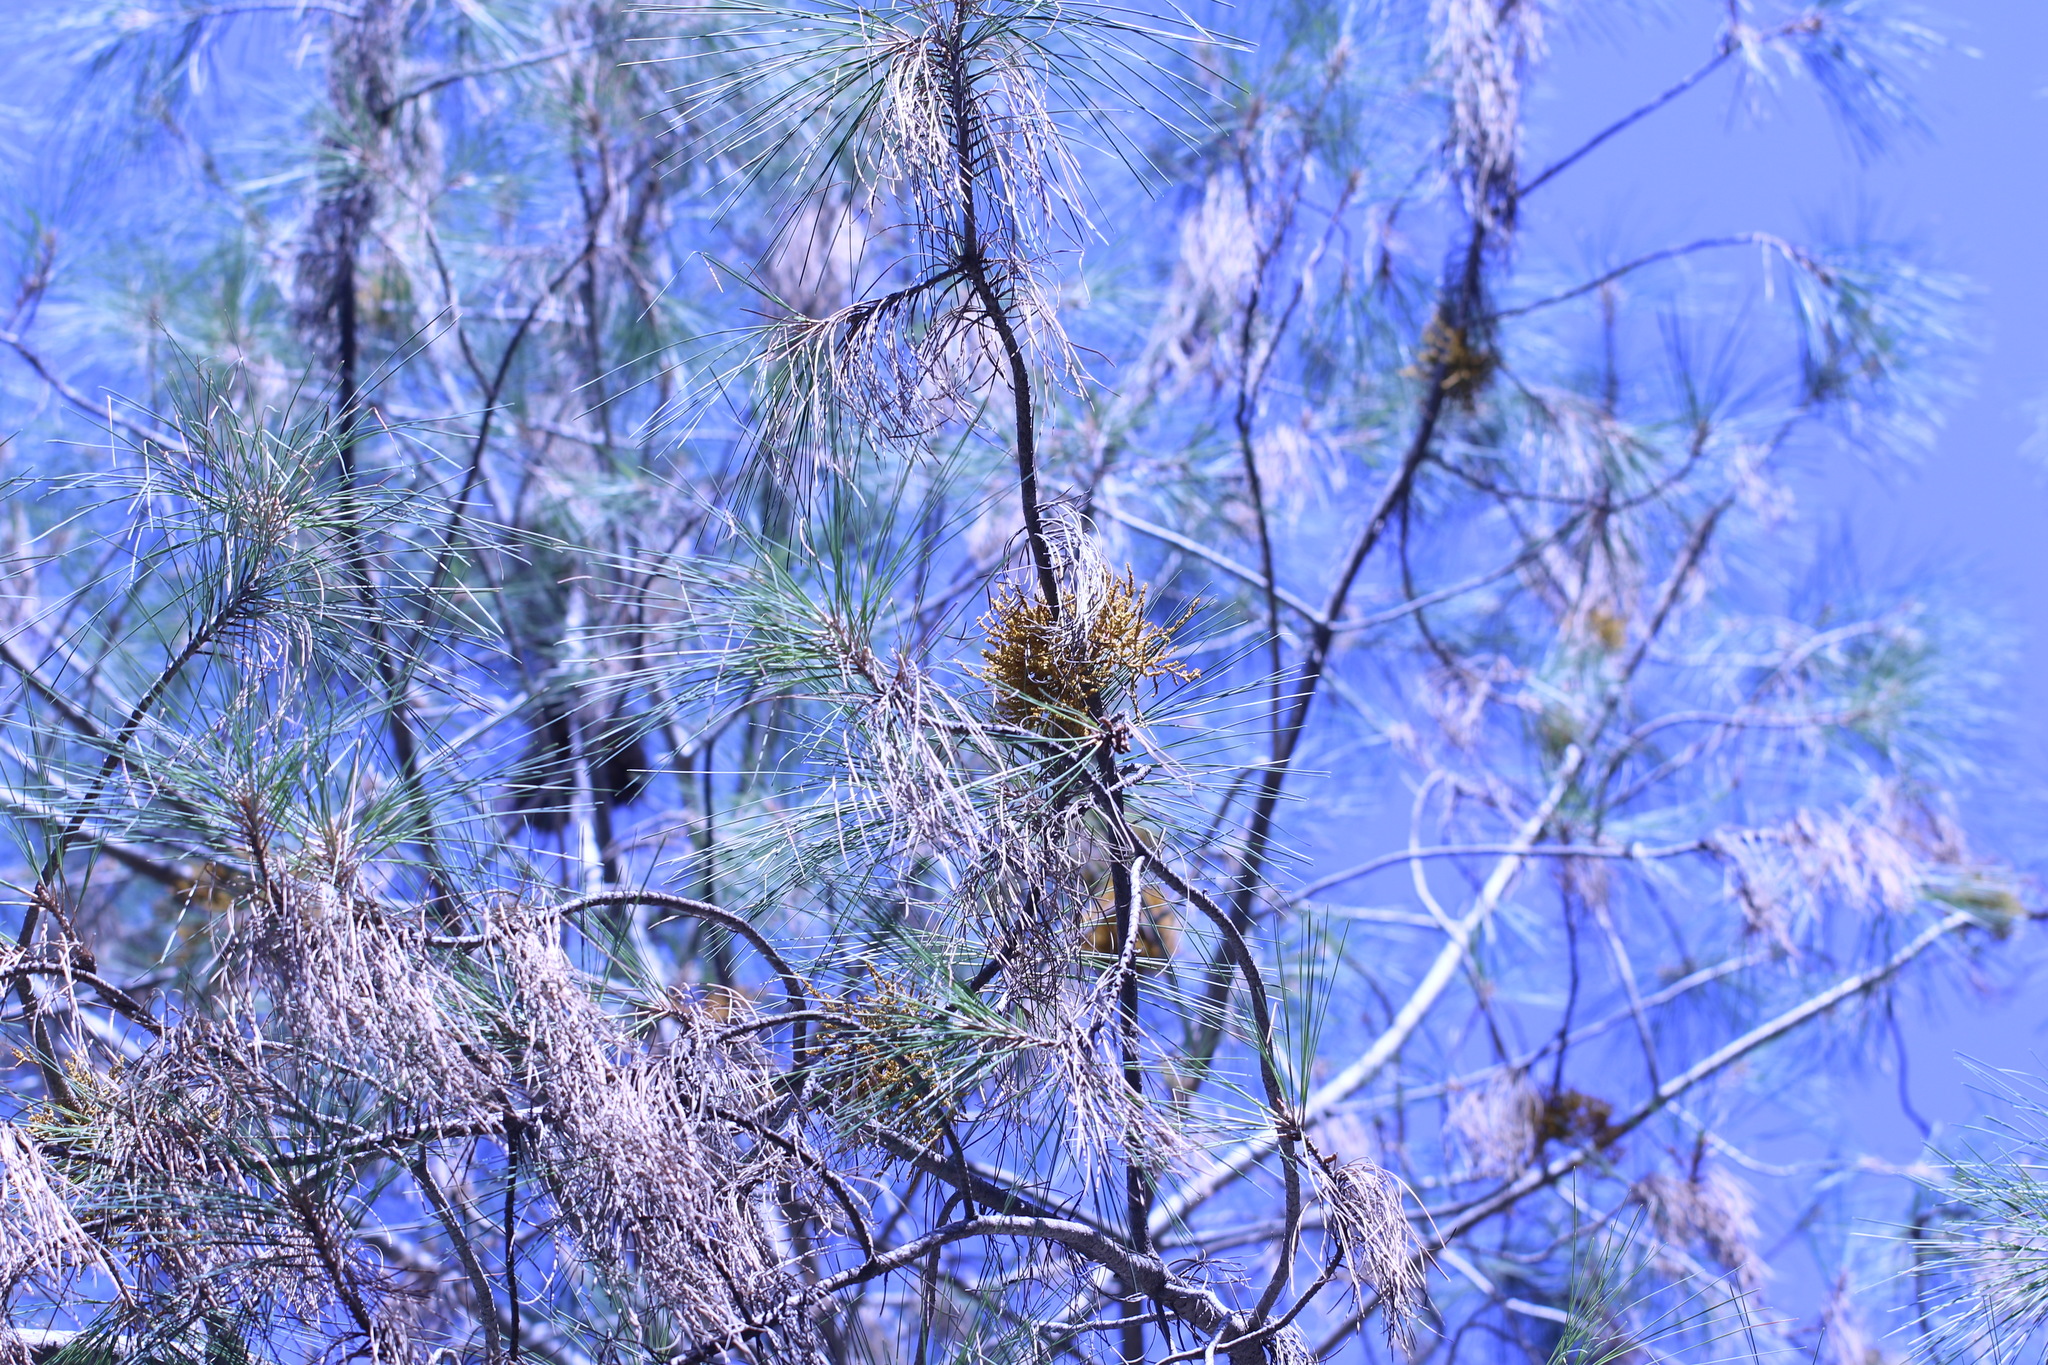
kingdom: Plantae
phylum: Tracheophyta
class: Magnoliopsida
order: Santalales
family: Viscaceae
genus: Arceuthobium
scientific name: Arceuthobium campylopodum
